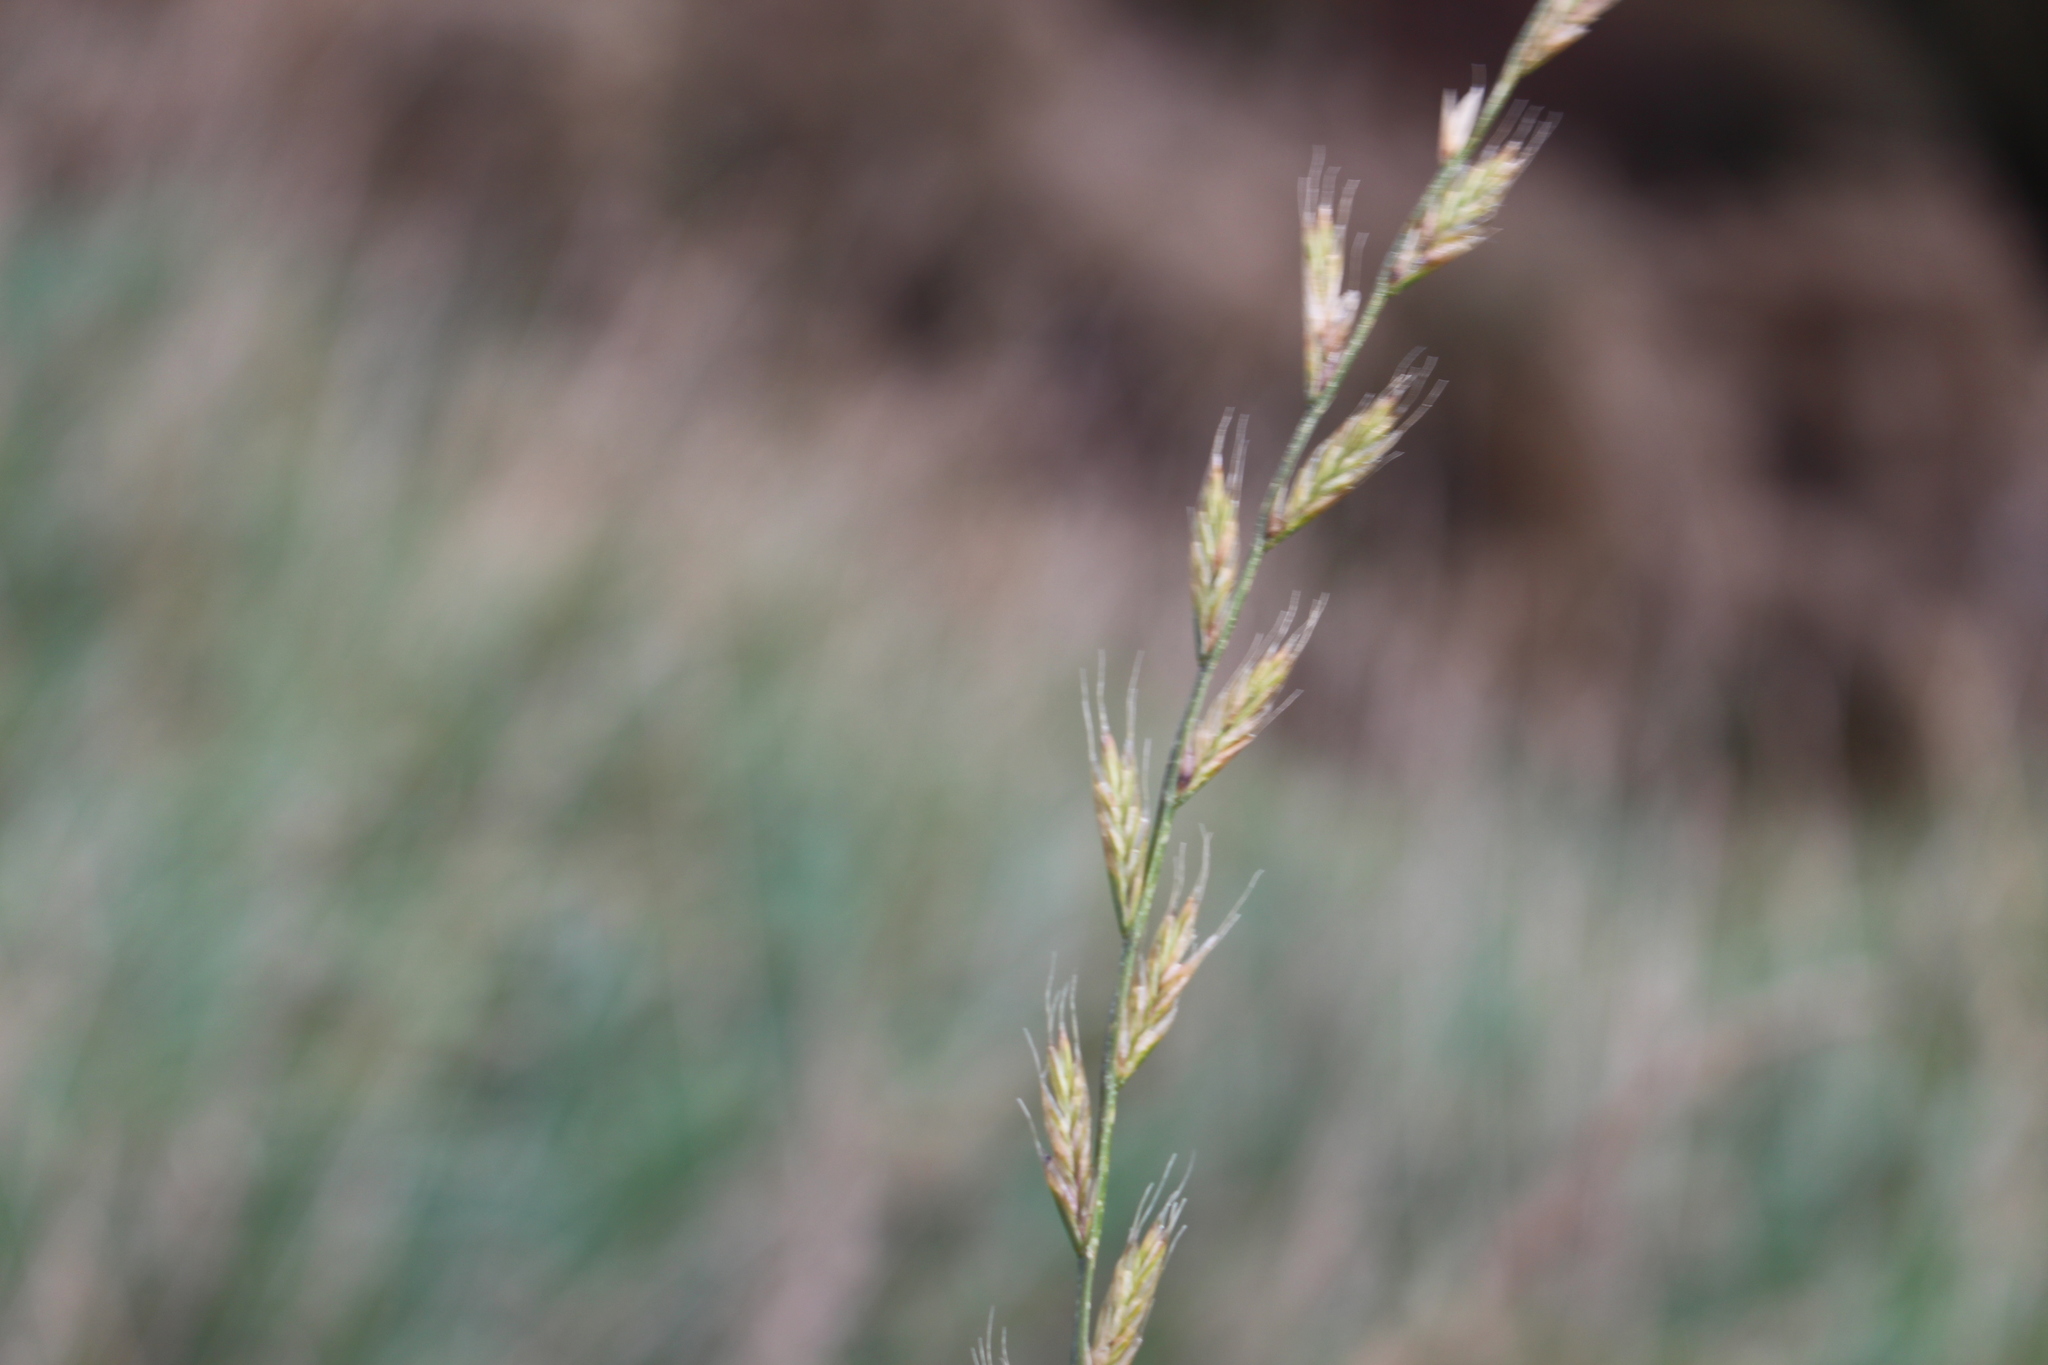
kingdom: Plantae
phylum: Tracheophyta
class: Liliopsida
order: Poales
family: Poaceae
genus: Lolium
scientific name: Lolium multiflorum
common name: Annual ryegrass
